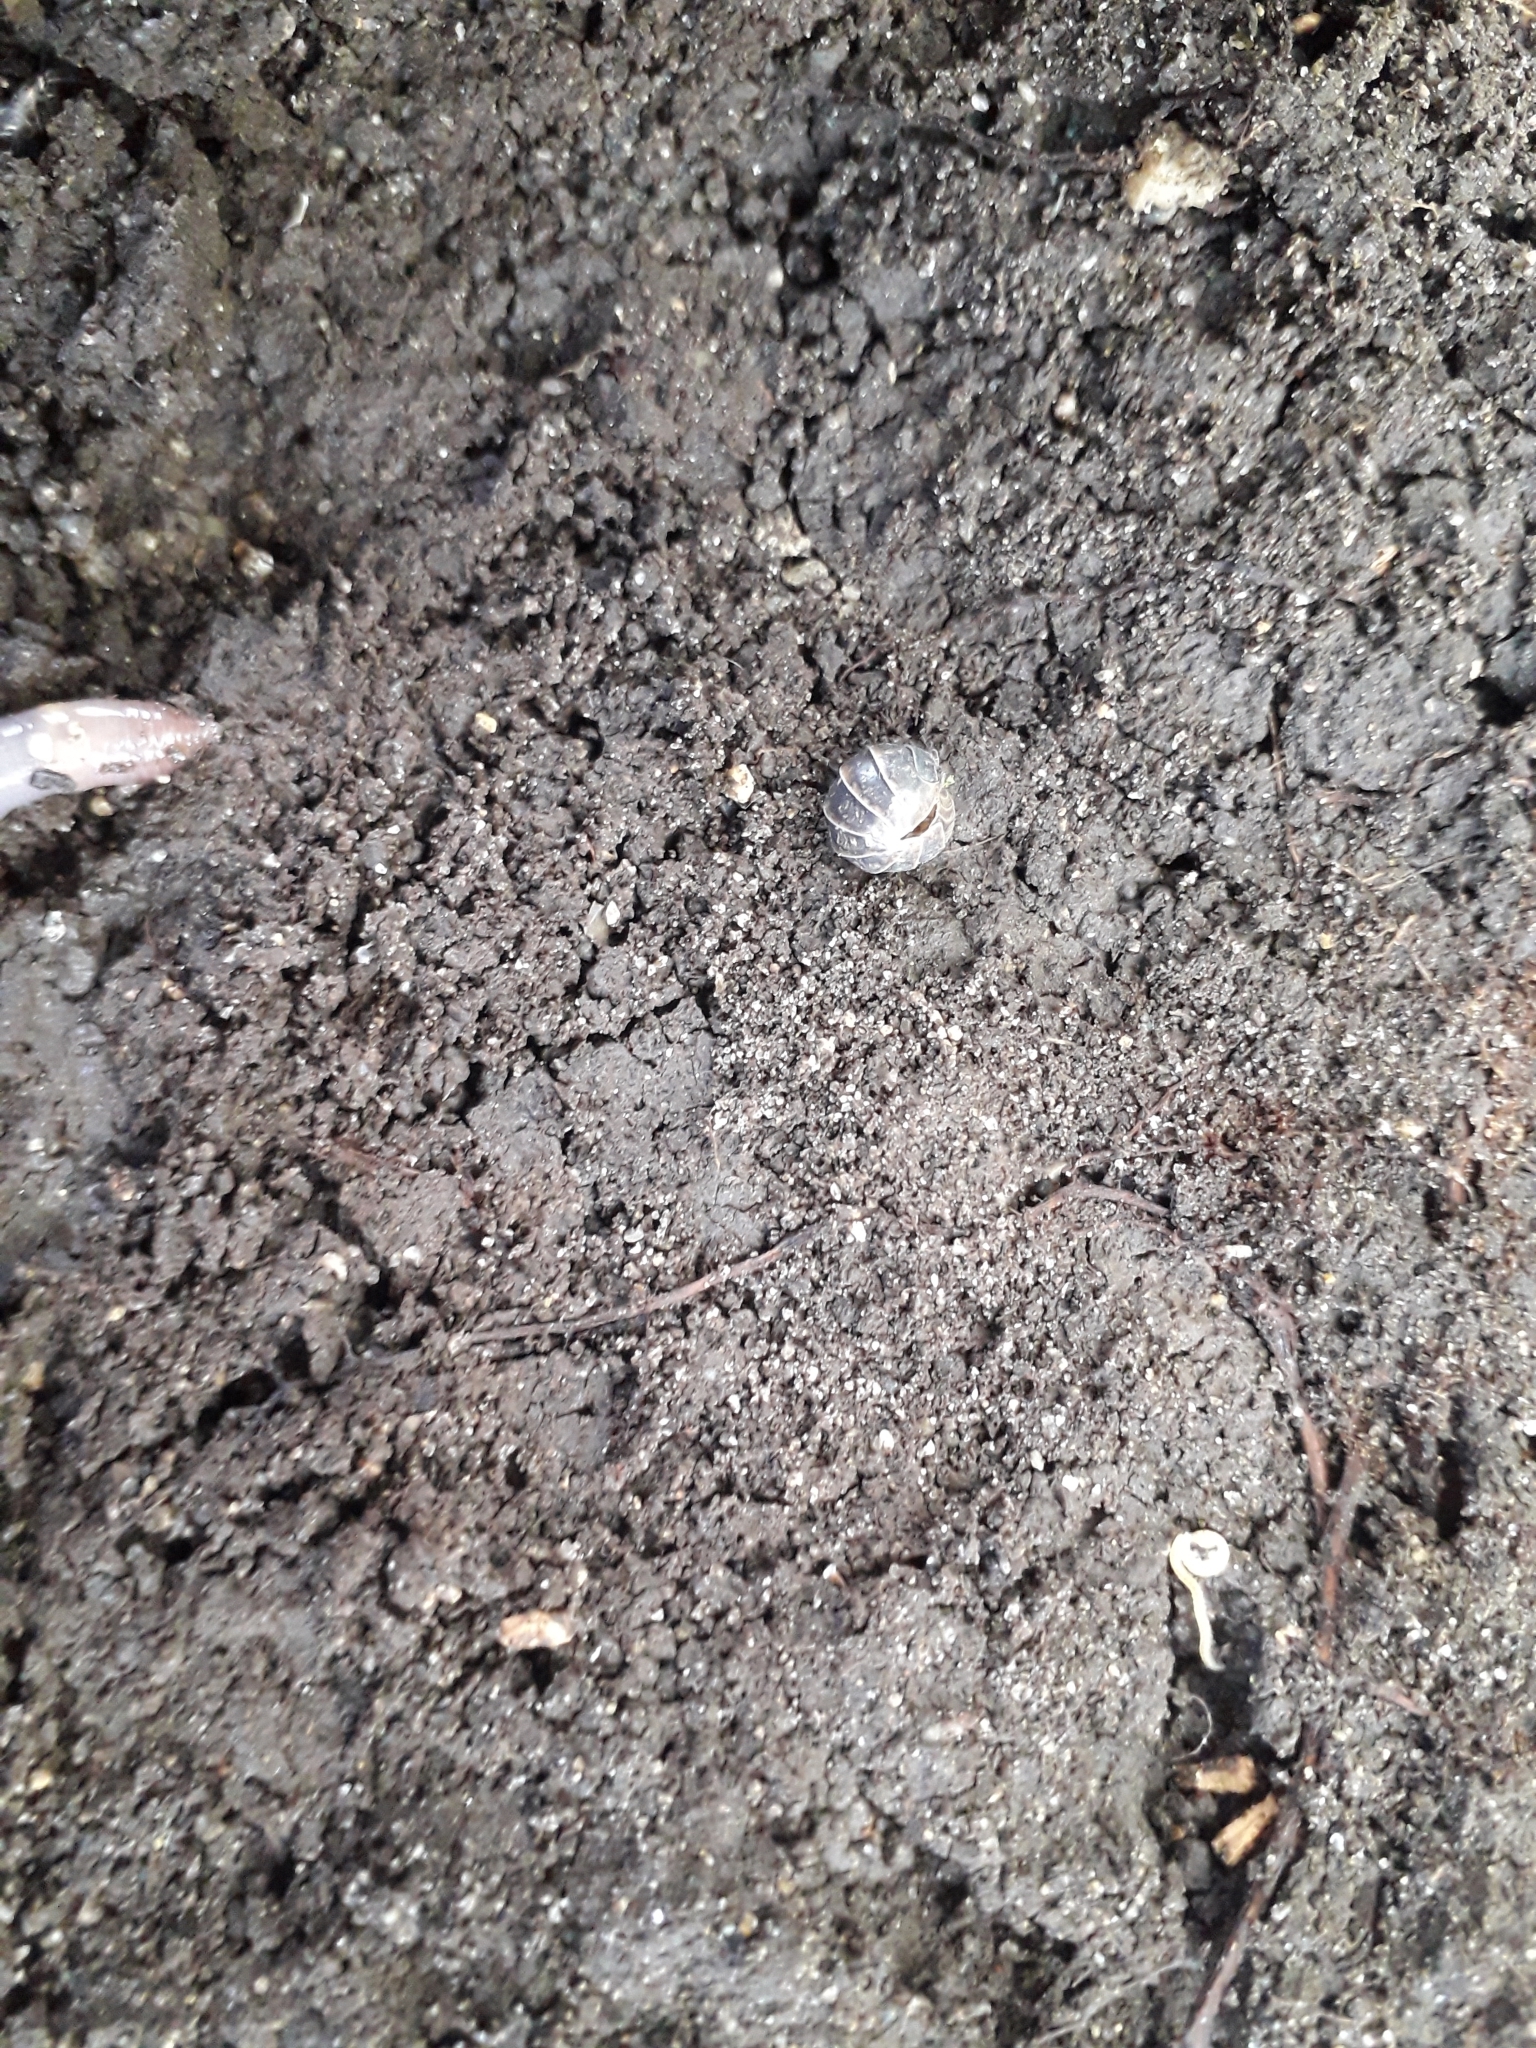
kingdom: Animalia
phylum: Arthropoda
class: Malacostraca
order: Isopoda
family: Armadillidiidae
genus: Armadillidium
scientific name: Armadillidium vulgare
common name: Common pill woodlouse
